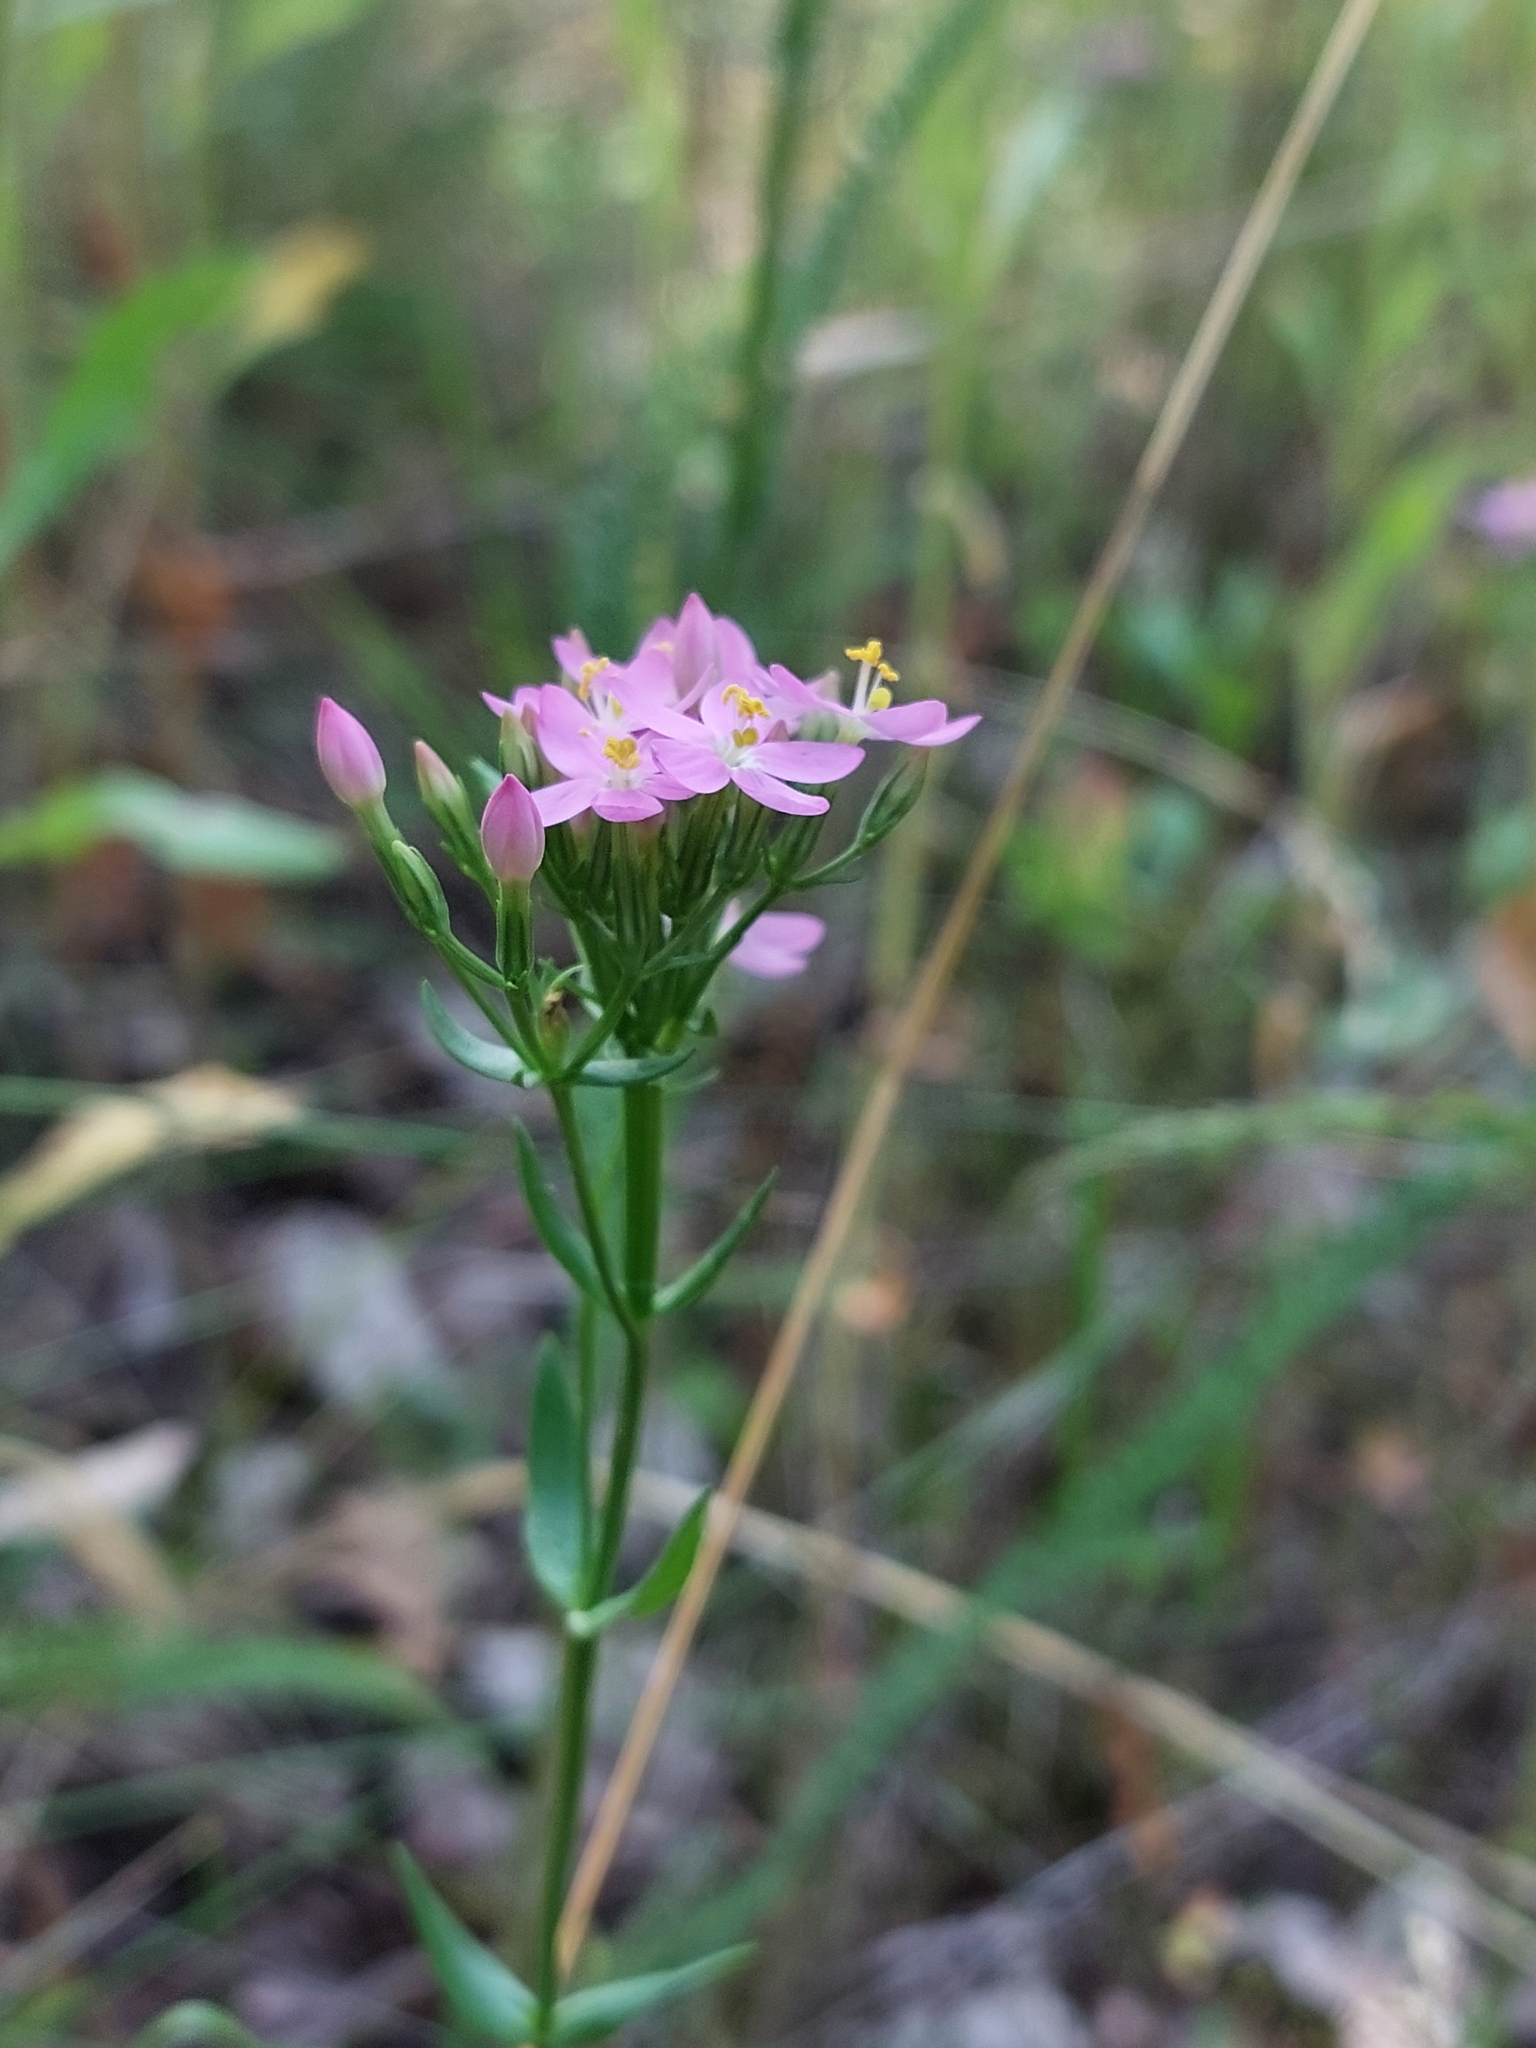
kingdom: Plantae
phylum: Tracheophyta
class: Magnoliopsida
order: Gentianales
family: Gentianaceae
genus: Centaurium
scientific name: Centaurium erythraea
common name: Common centaury
